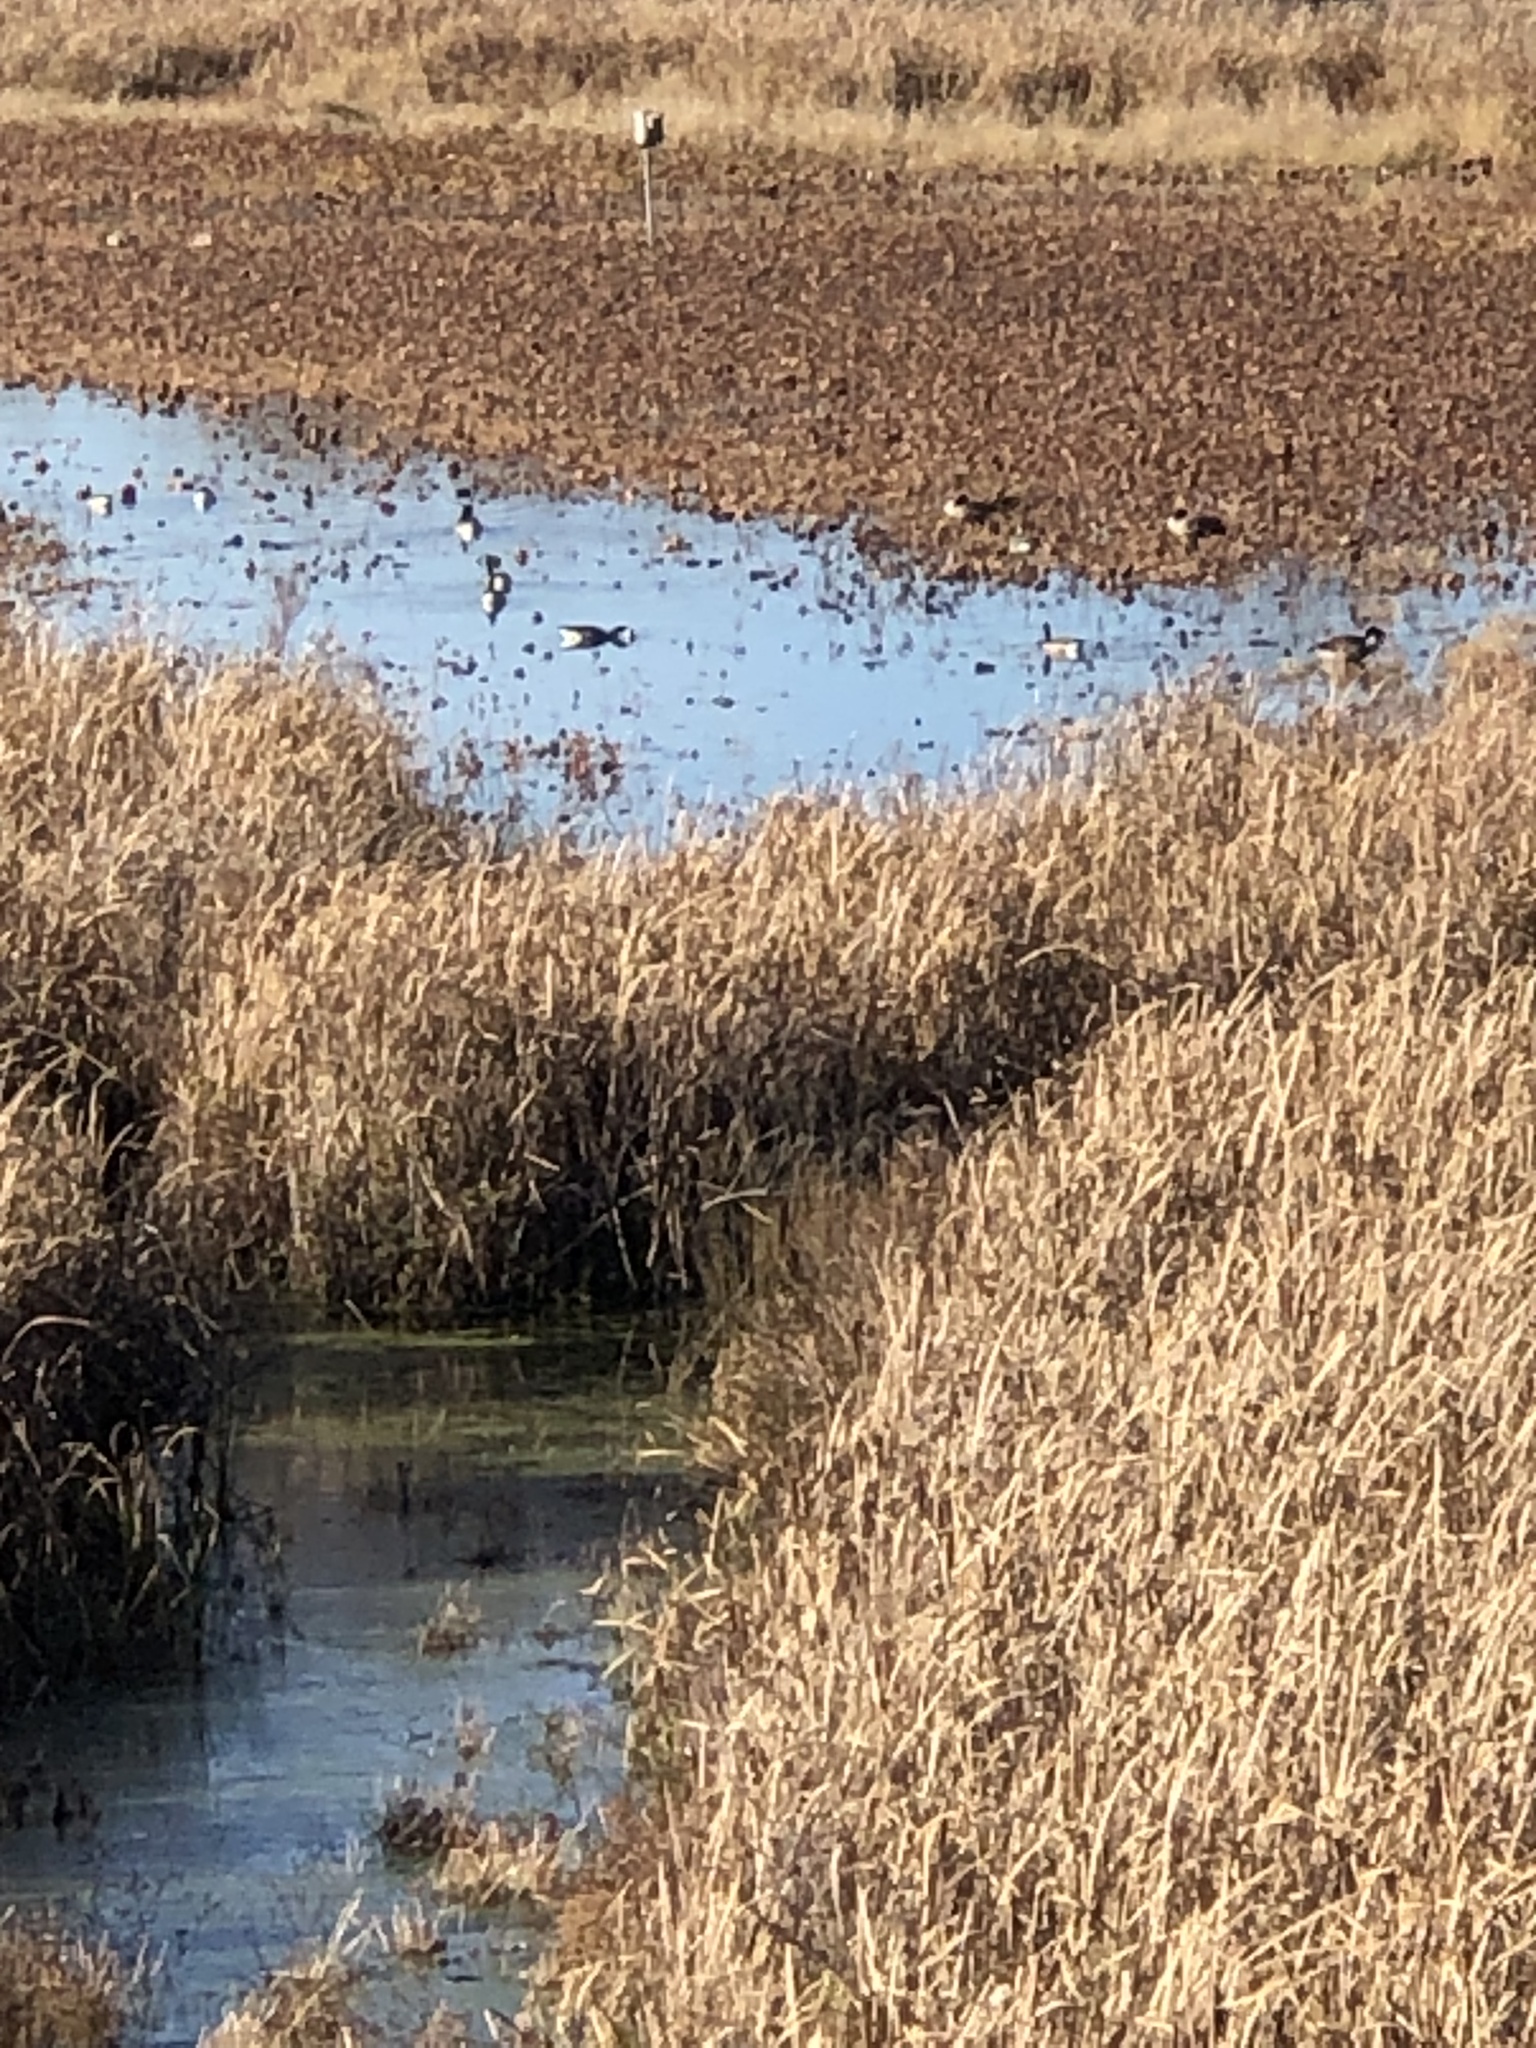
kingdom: Animalia
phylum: Chordata
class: Aves
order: Anseriformes
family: Anatidae
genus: Branta
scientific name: Branta canadensis
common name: Canada goose
